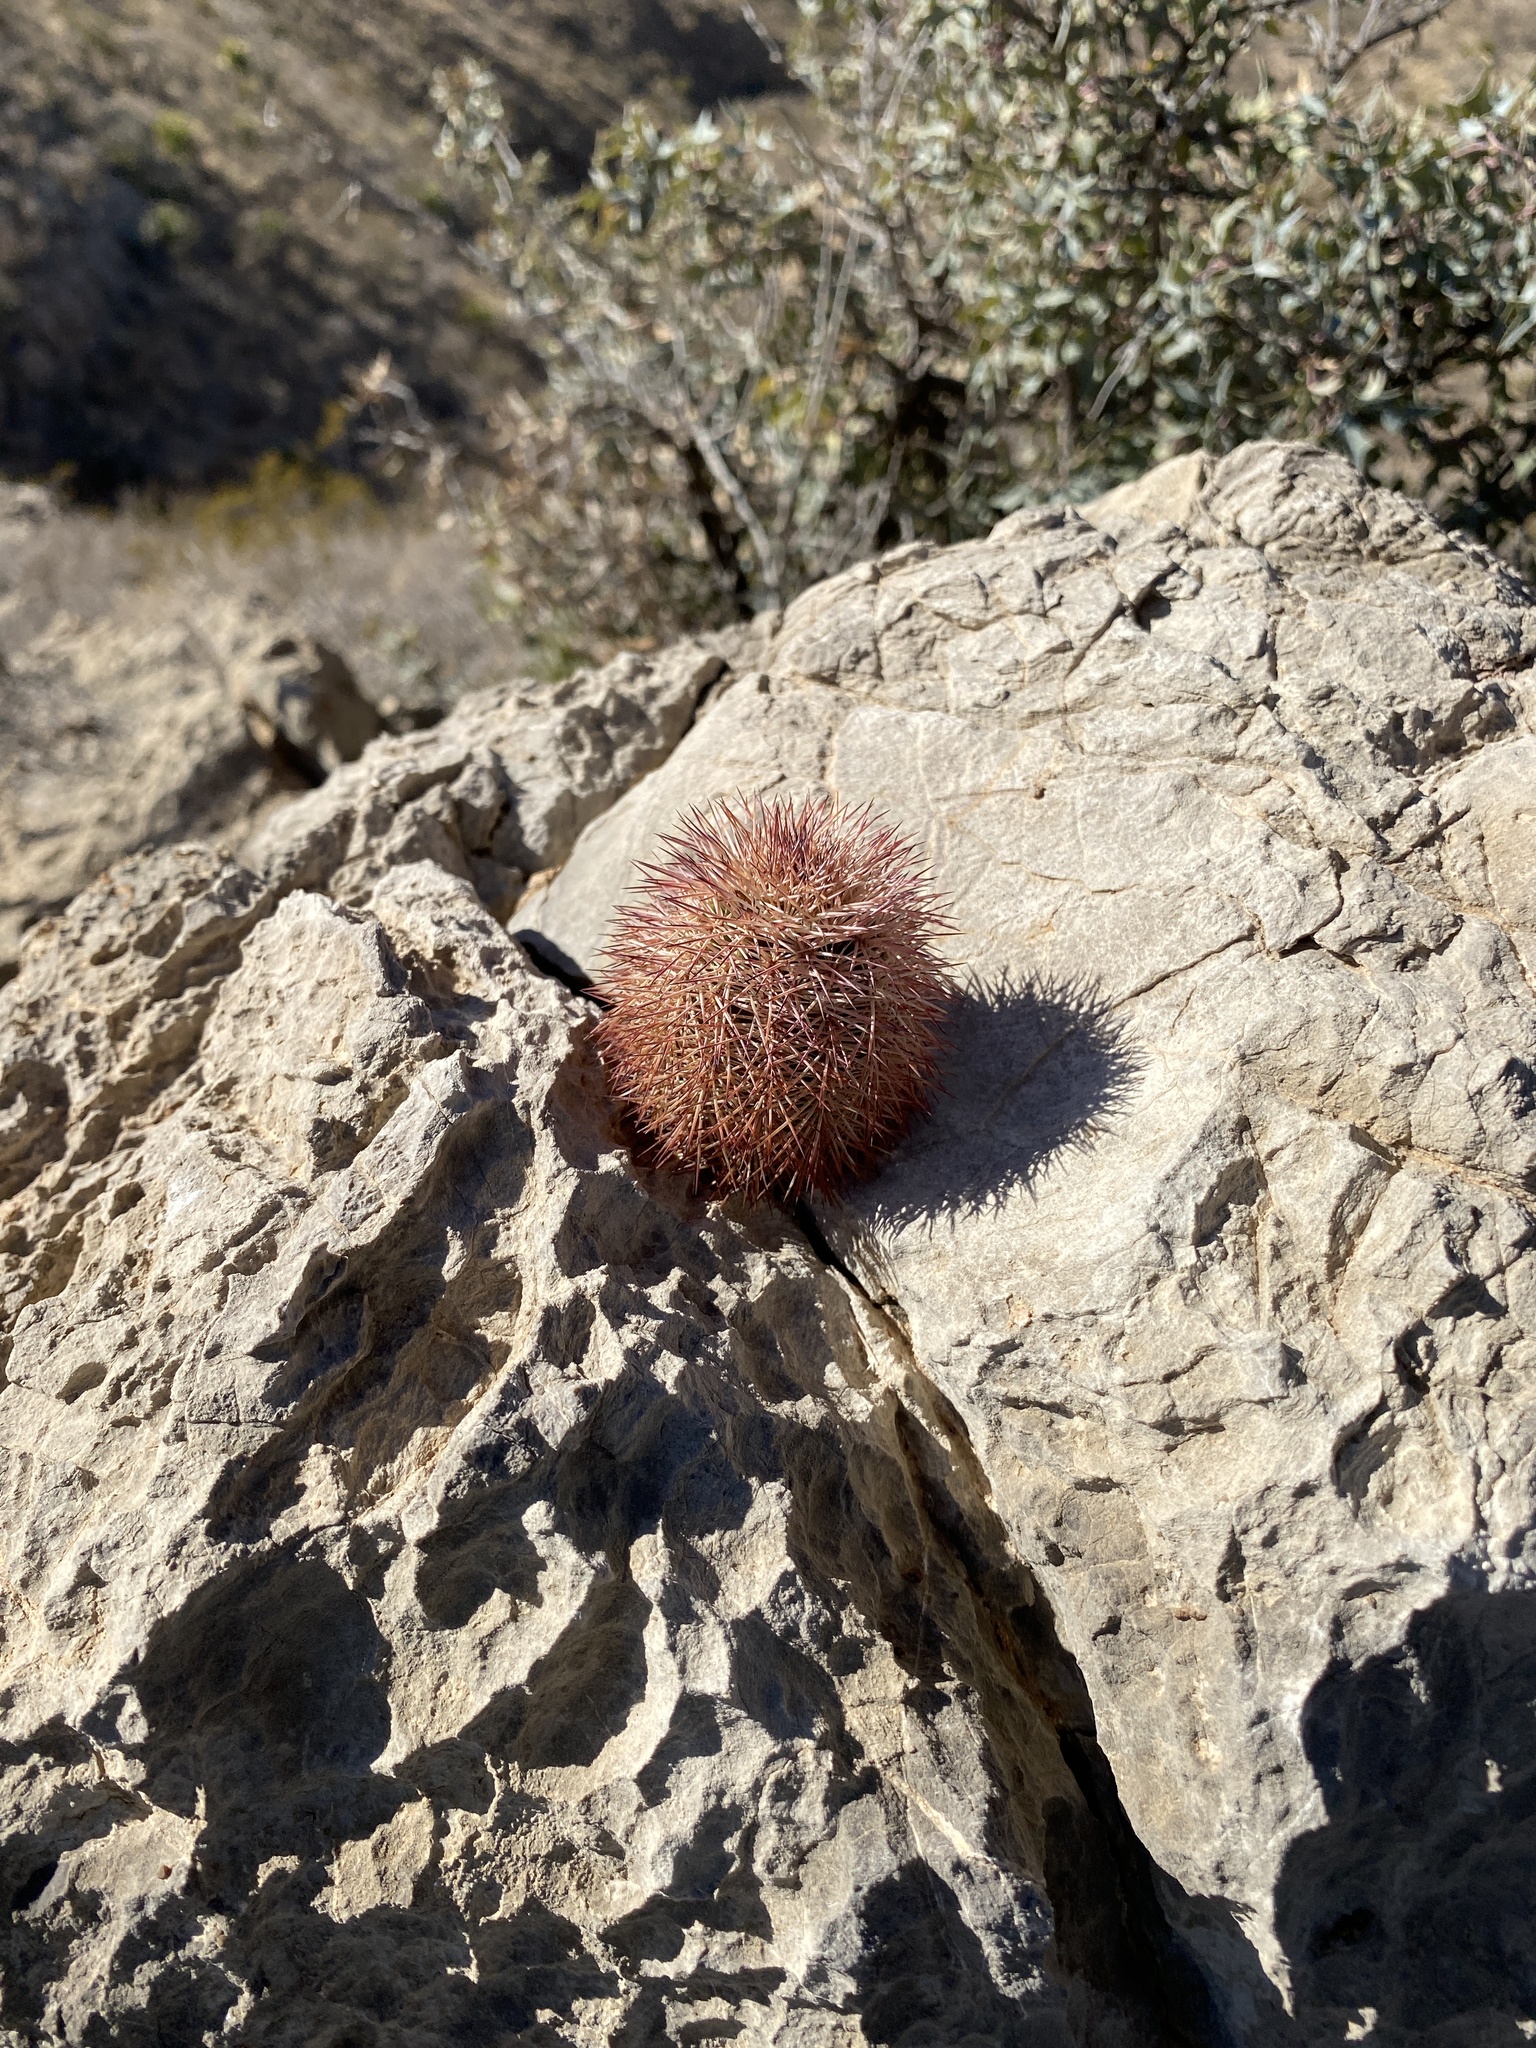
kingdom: Plantae
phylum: Tracheophyta
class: Magnoliopsida
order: Caryophyllales
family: Cactaceae
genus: Echinocereus
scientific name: Echinocereus dasyacanthus
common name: Spiny hedgehog cactus
